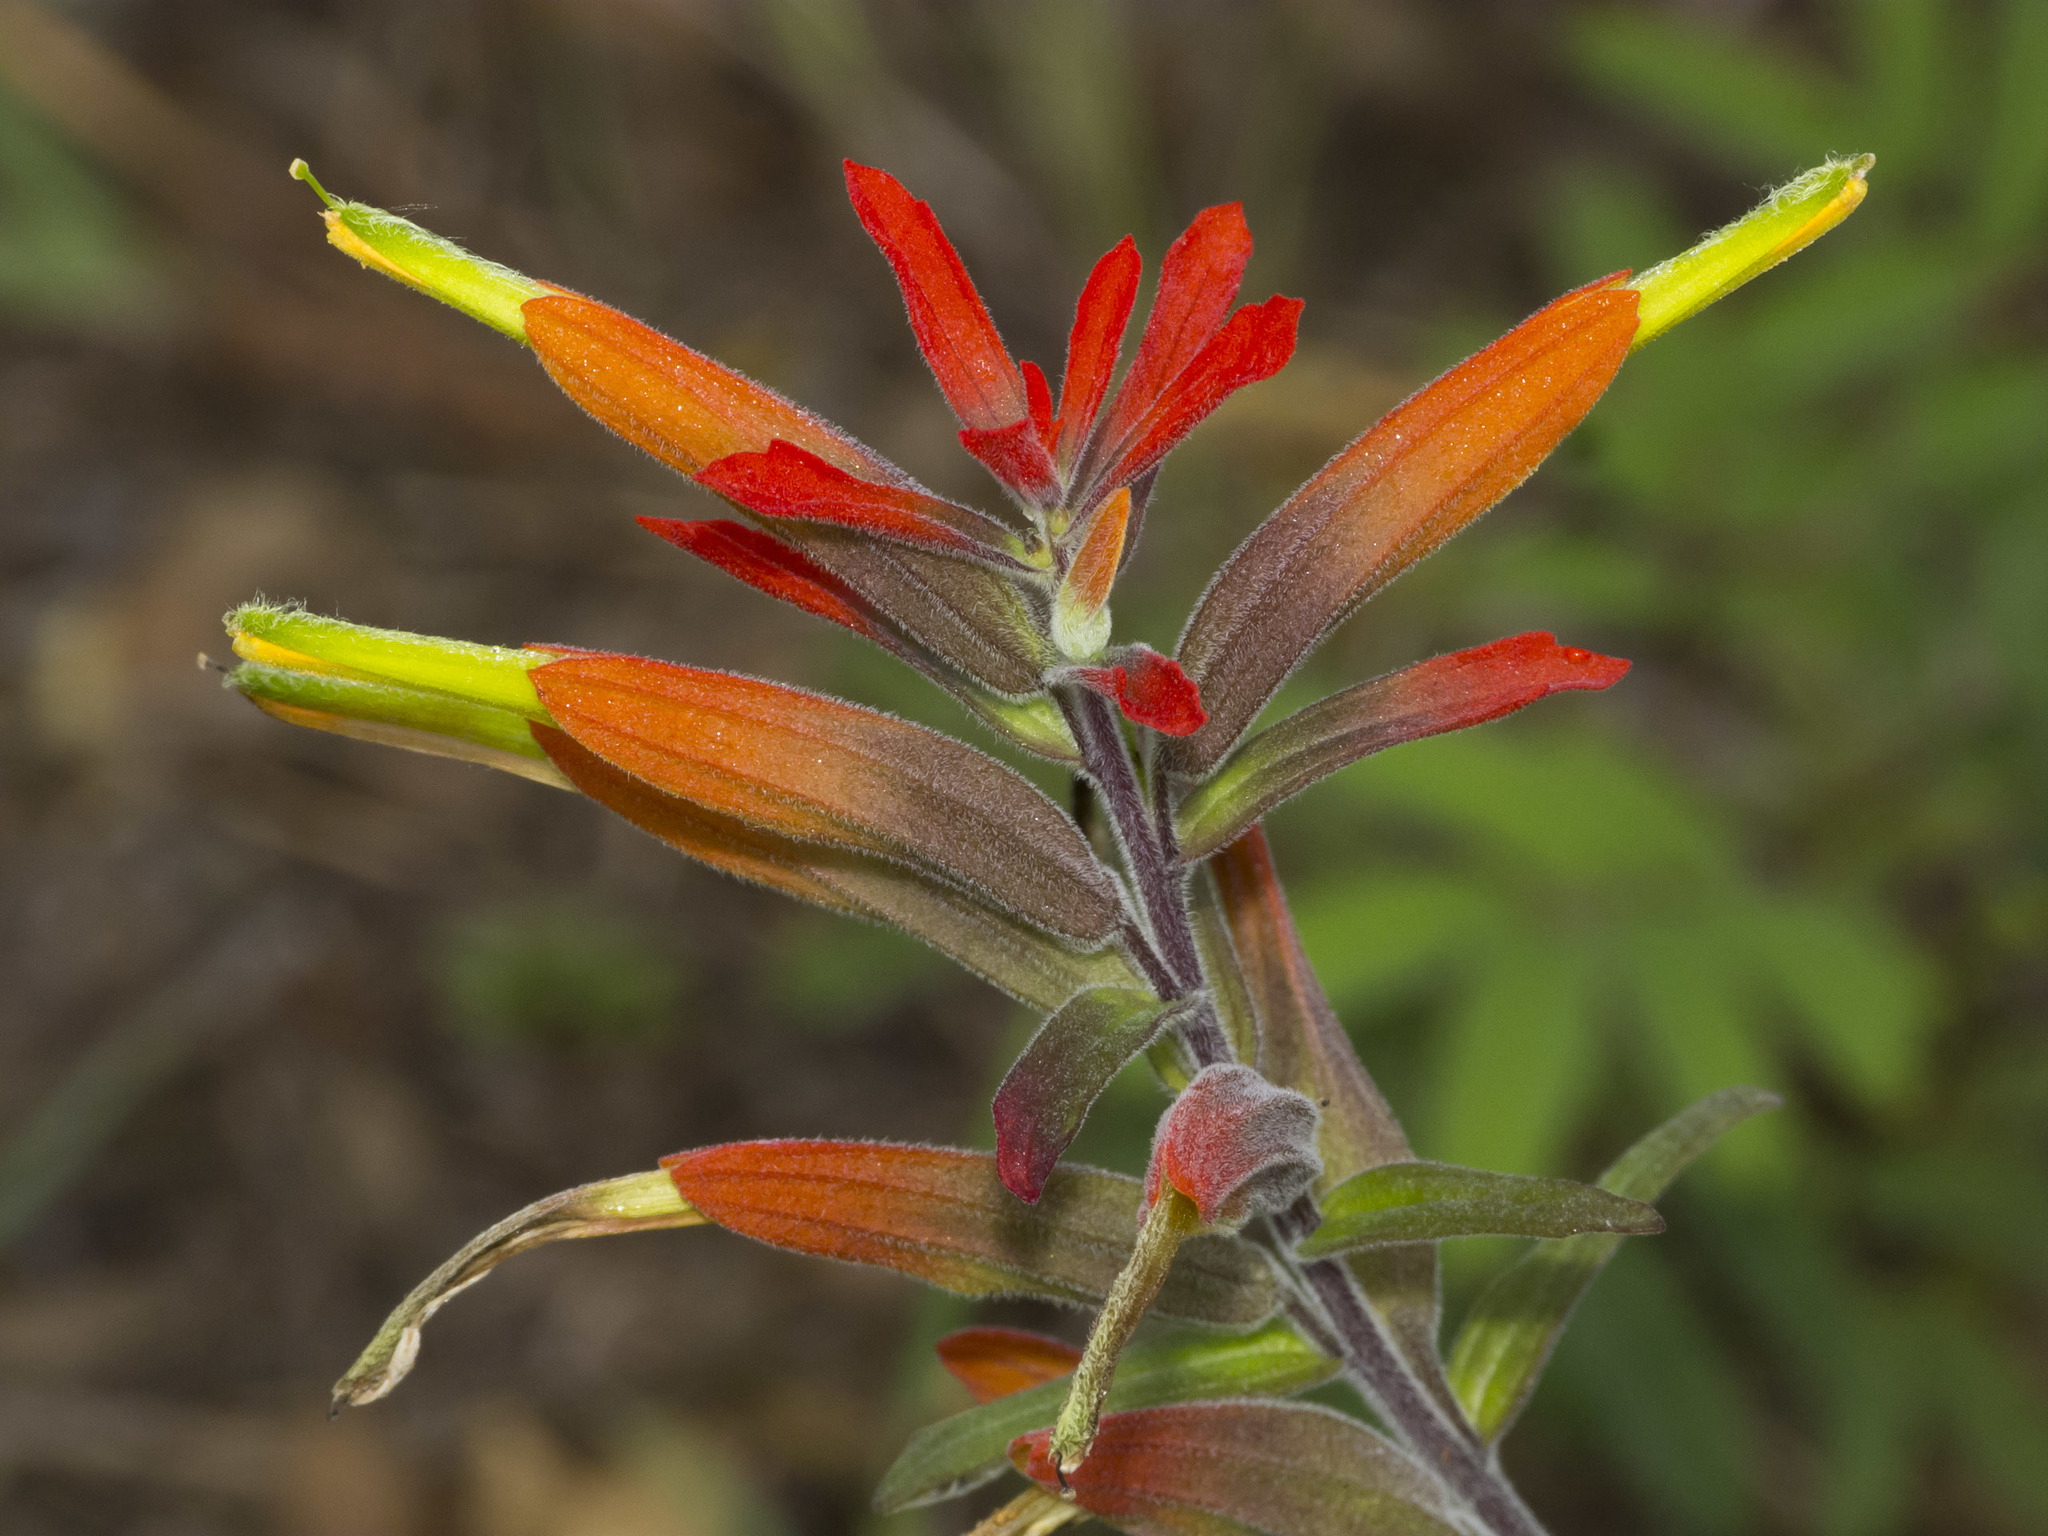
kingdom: Plantae
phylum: Tracheophyta
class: Magnoliopsida
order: Lamiales
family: Orobanchaceae
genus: Castilleja
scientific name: Castilleja integrifolia
